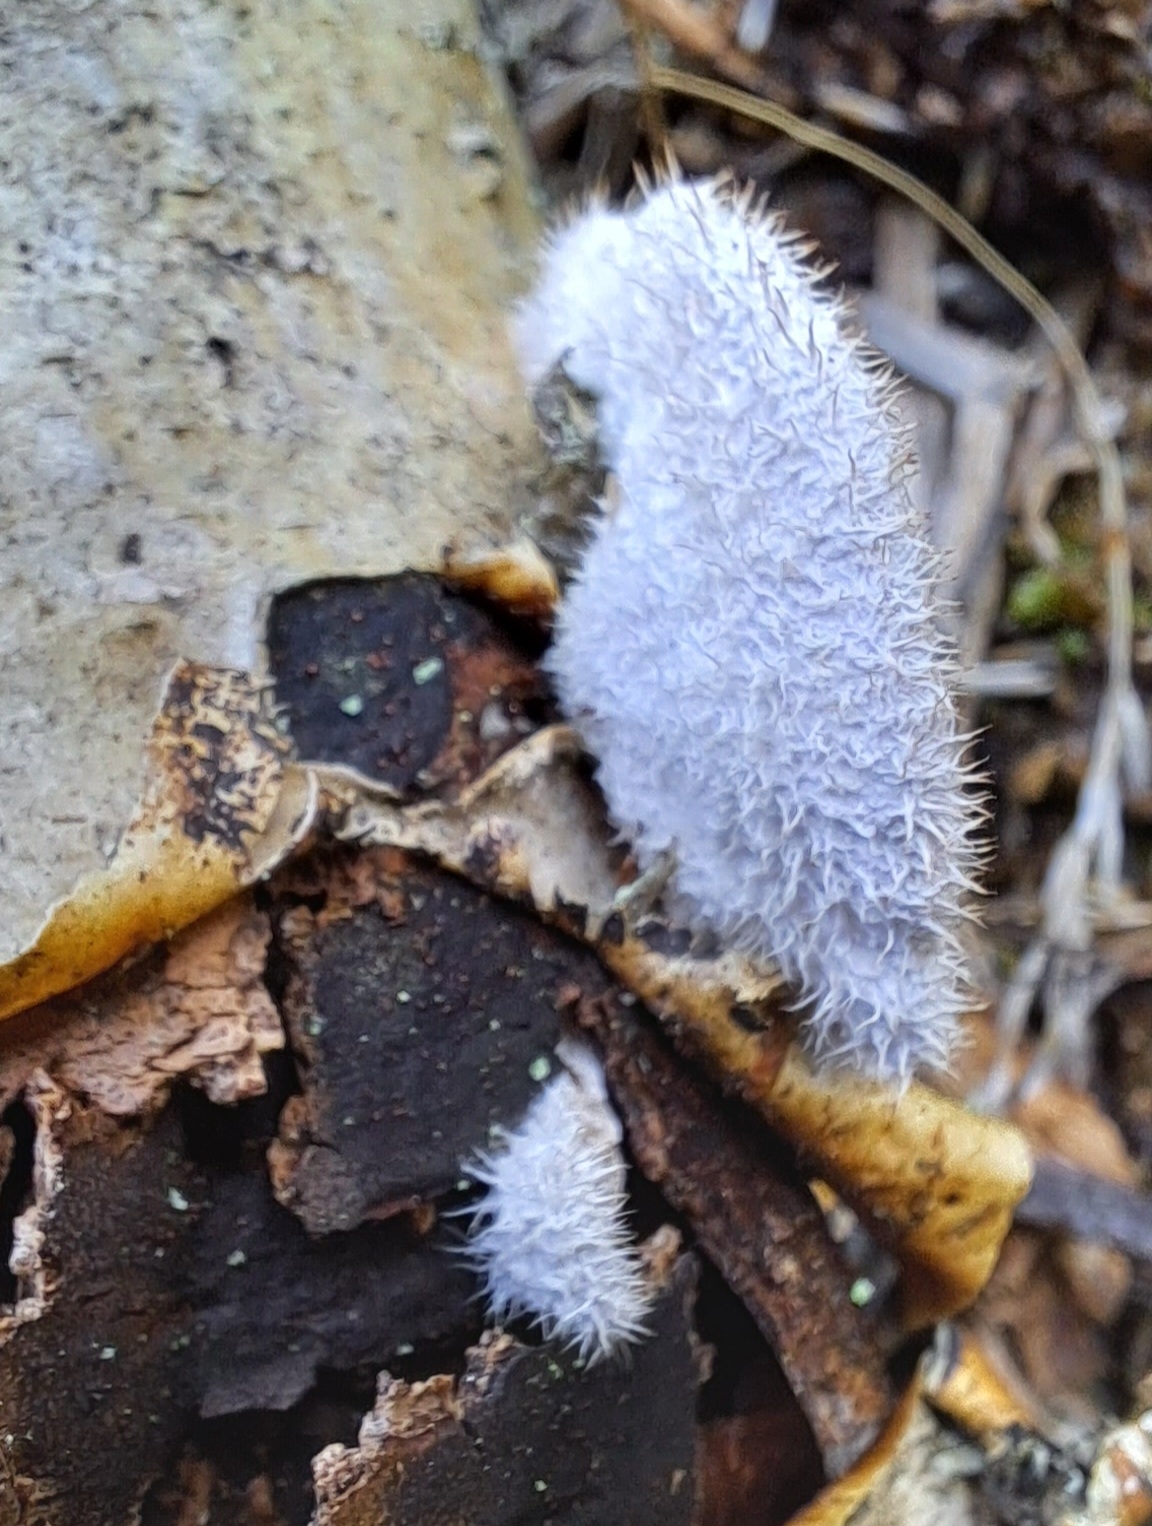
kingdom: Fungi
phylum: Basidiomycota
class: Agaricomycetes
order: Agaricales
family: Schizophyllaceae
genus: Schizophyllum
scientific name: Schizophyllum commune
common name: Common porecrust
